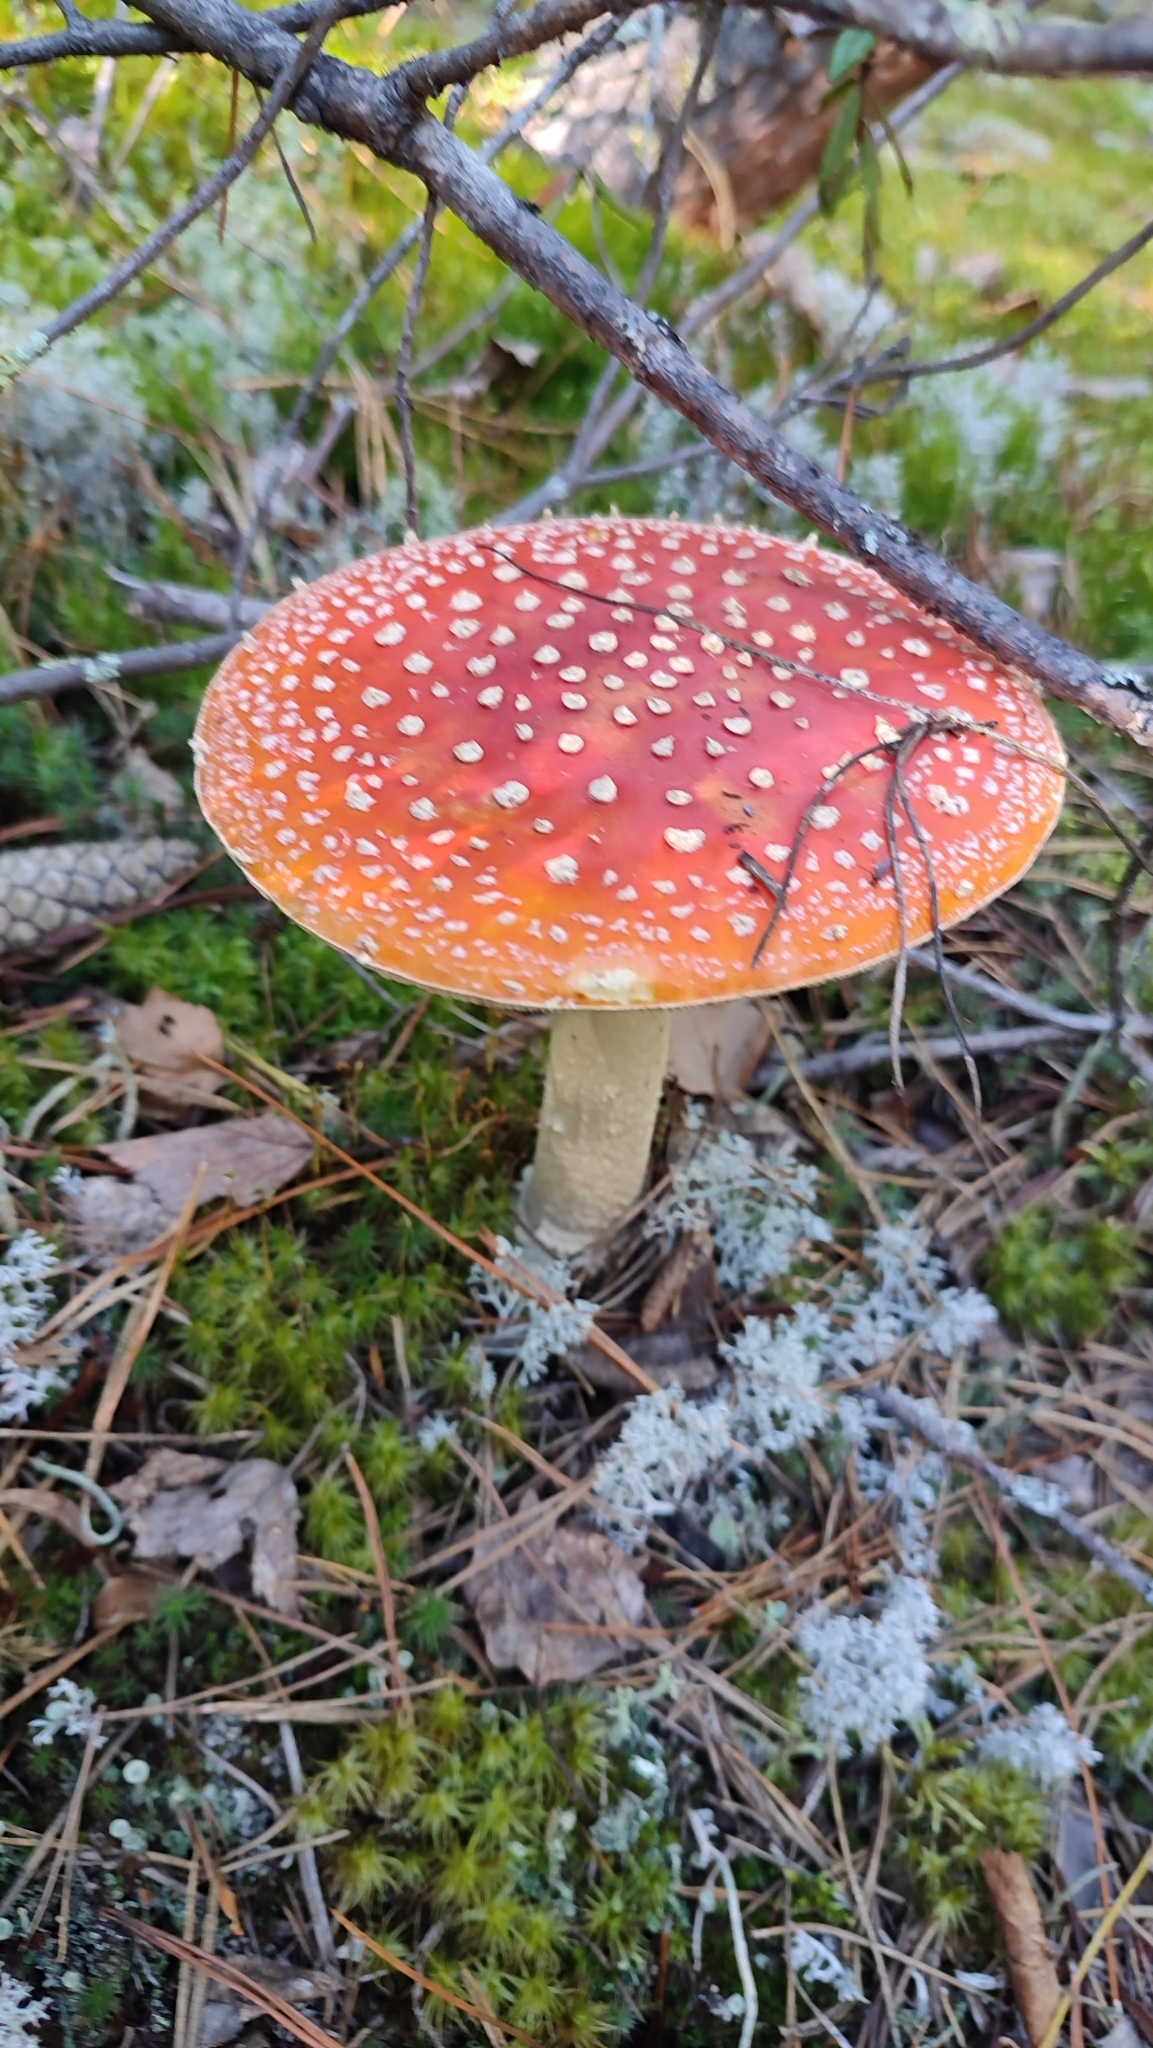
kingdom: Fungi
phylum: Basidiomycota
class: Agaricomycetes
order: Agaricales
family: Amanitaceae
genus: Amanita
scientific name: Amanita muscaria
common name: Fly agaric
